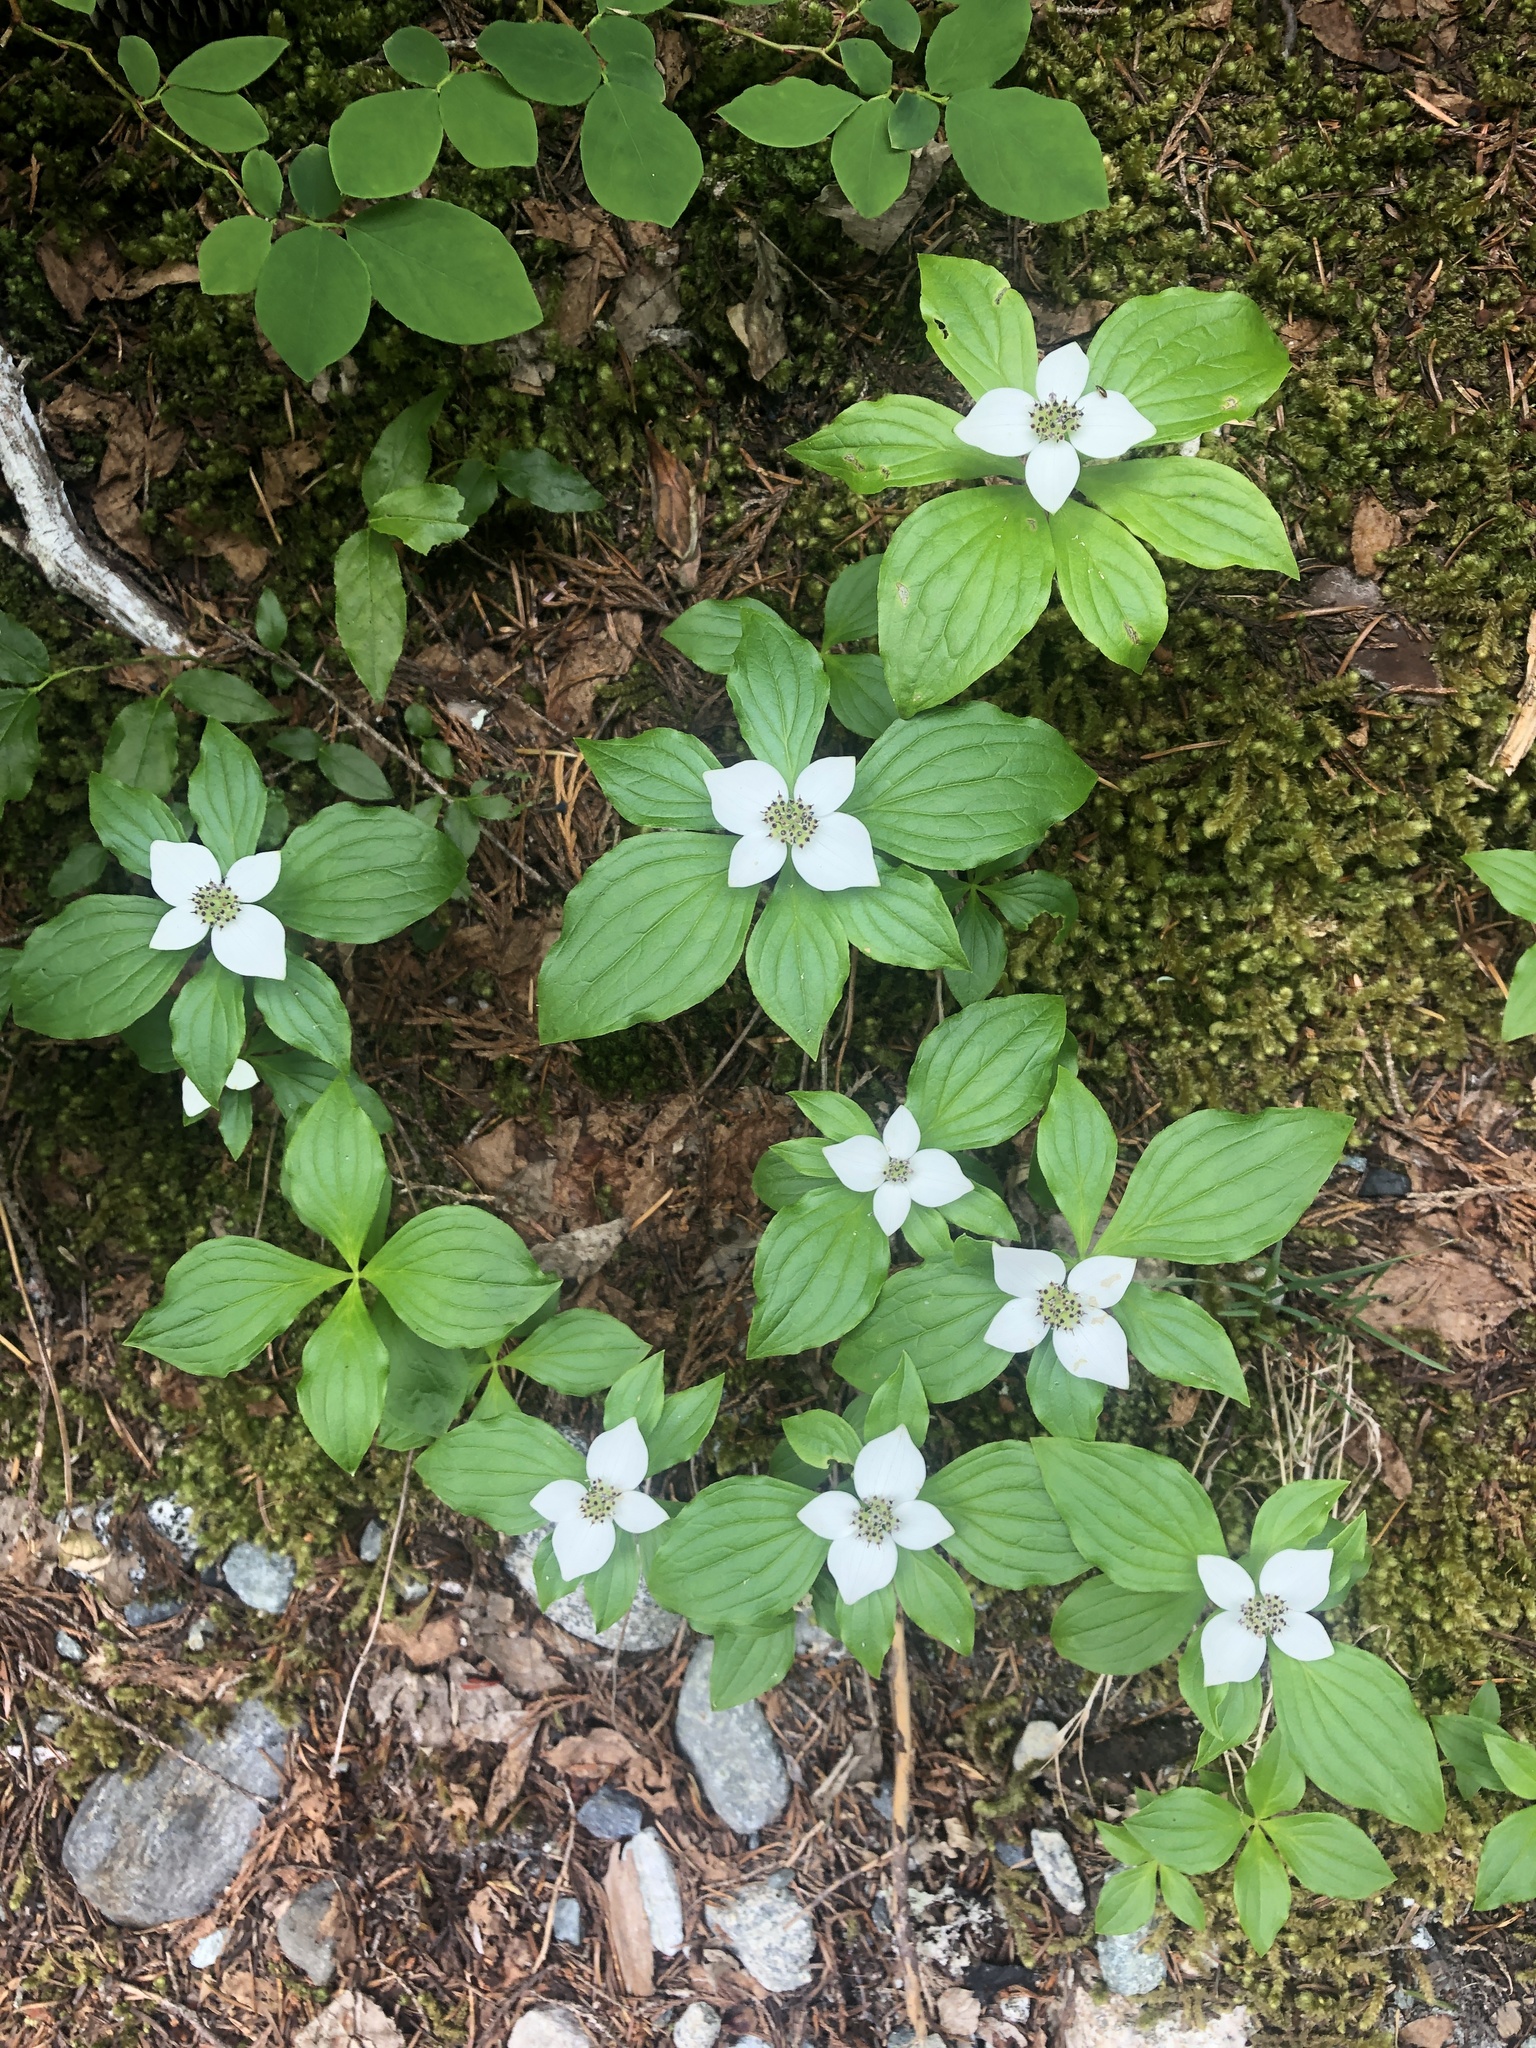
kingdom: Plantae
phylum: Tracheophyta
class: Magnoliopsida
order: Cornales
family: Cornaceae
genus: Cornus
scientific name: Cornus unalaschkensis
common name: Alaska bunchberry
